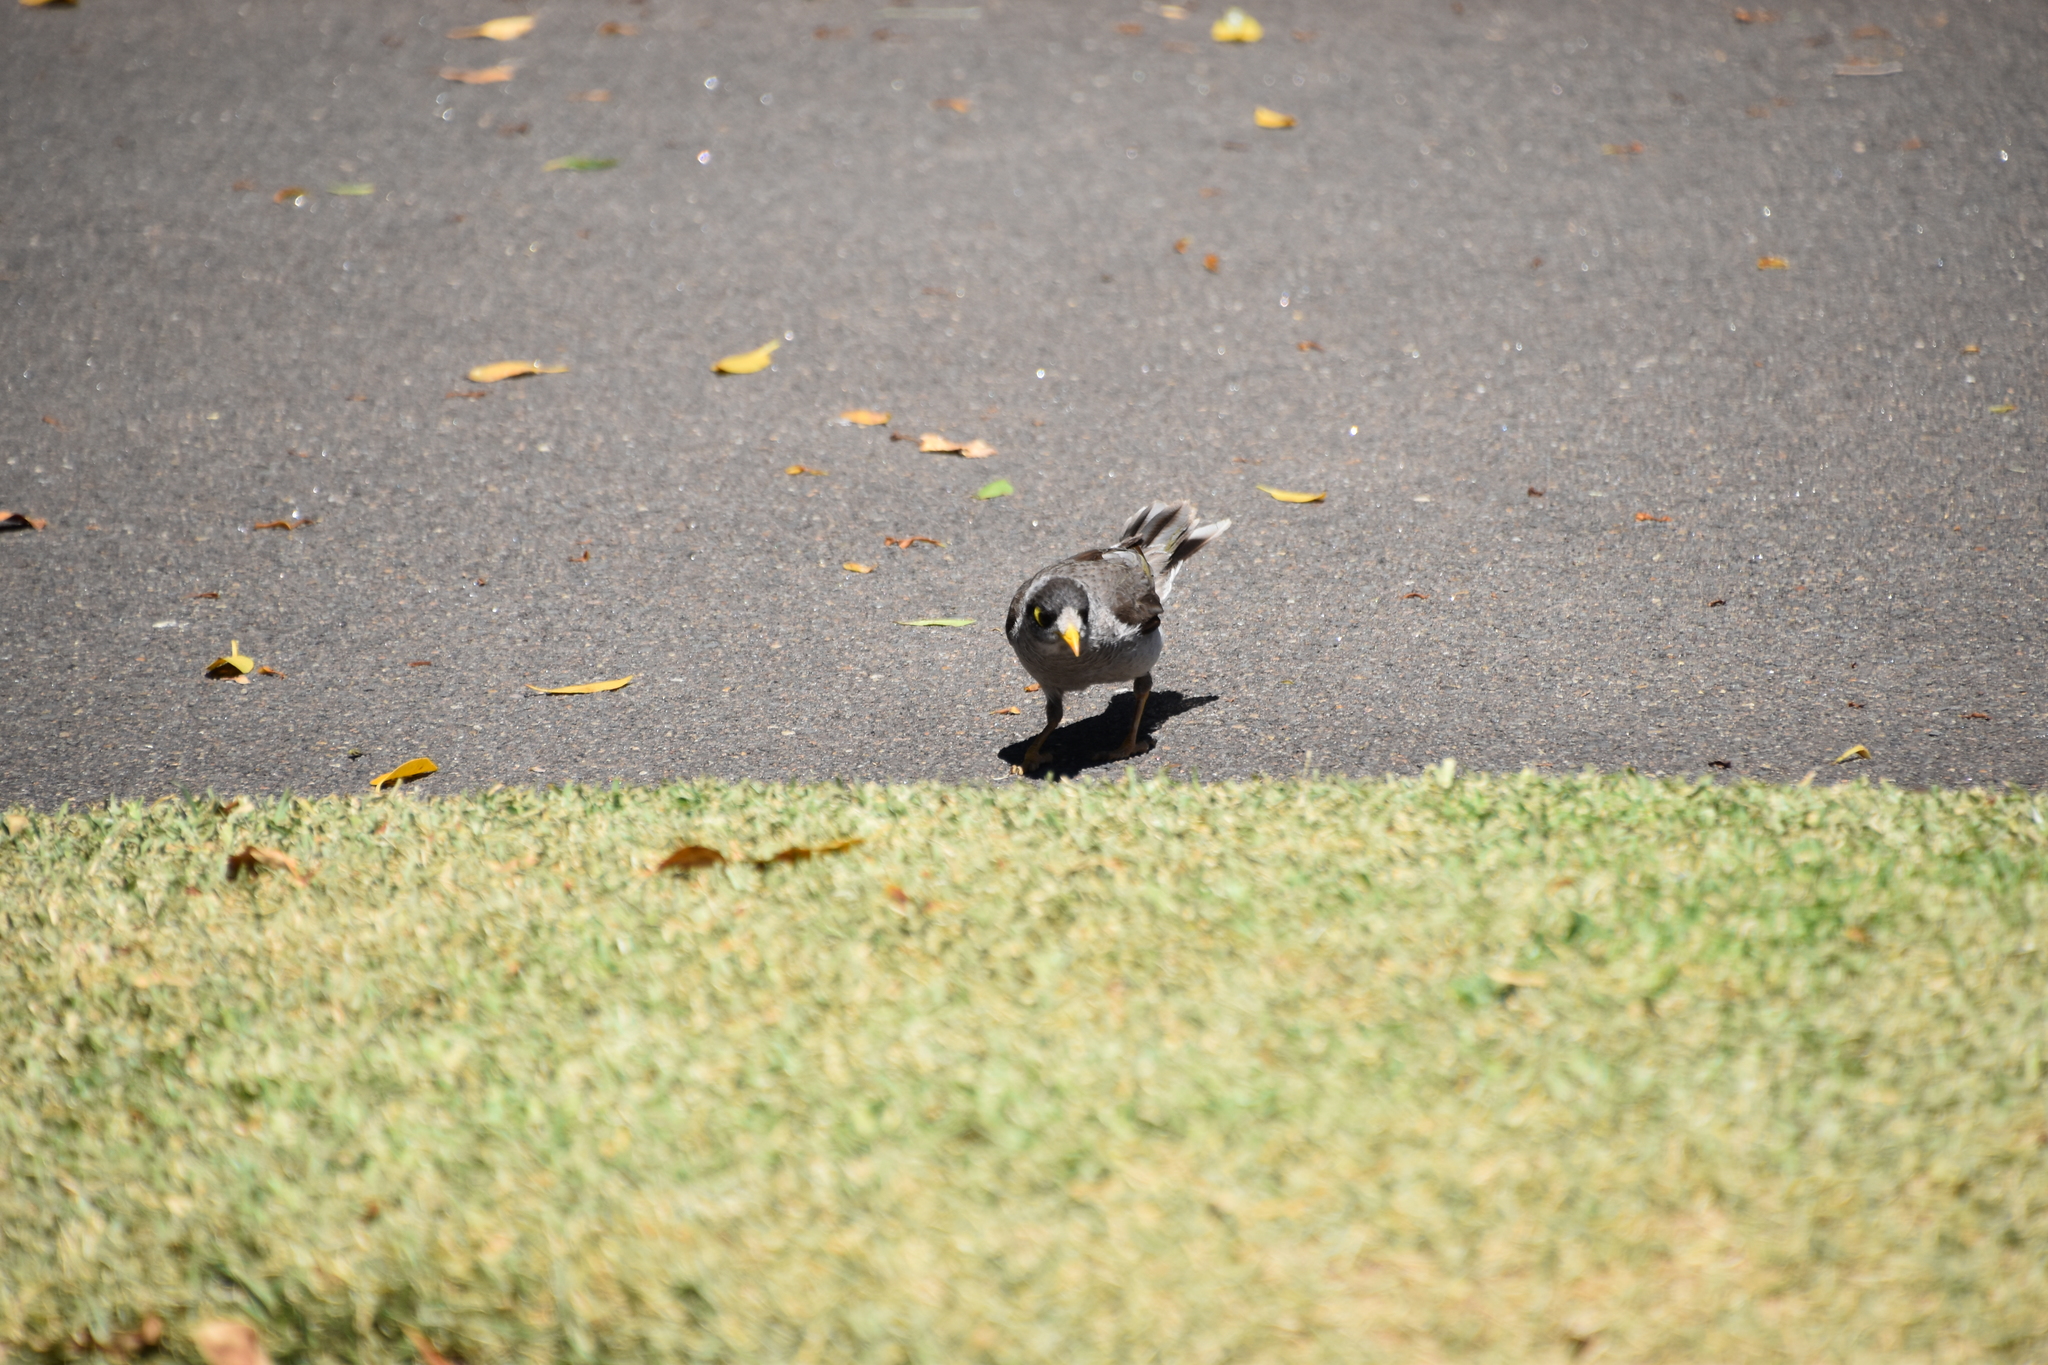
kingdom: Animalia
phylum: Chordata
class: Aves
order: Passeriformes
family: Meliphagidae
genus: Manorina
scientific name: Manorina melanocephala
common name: Noisy miner
